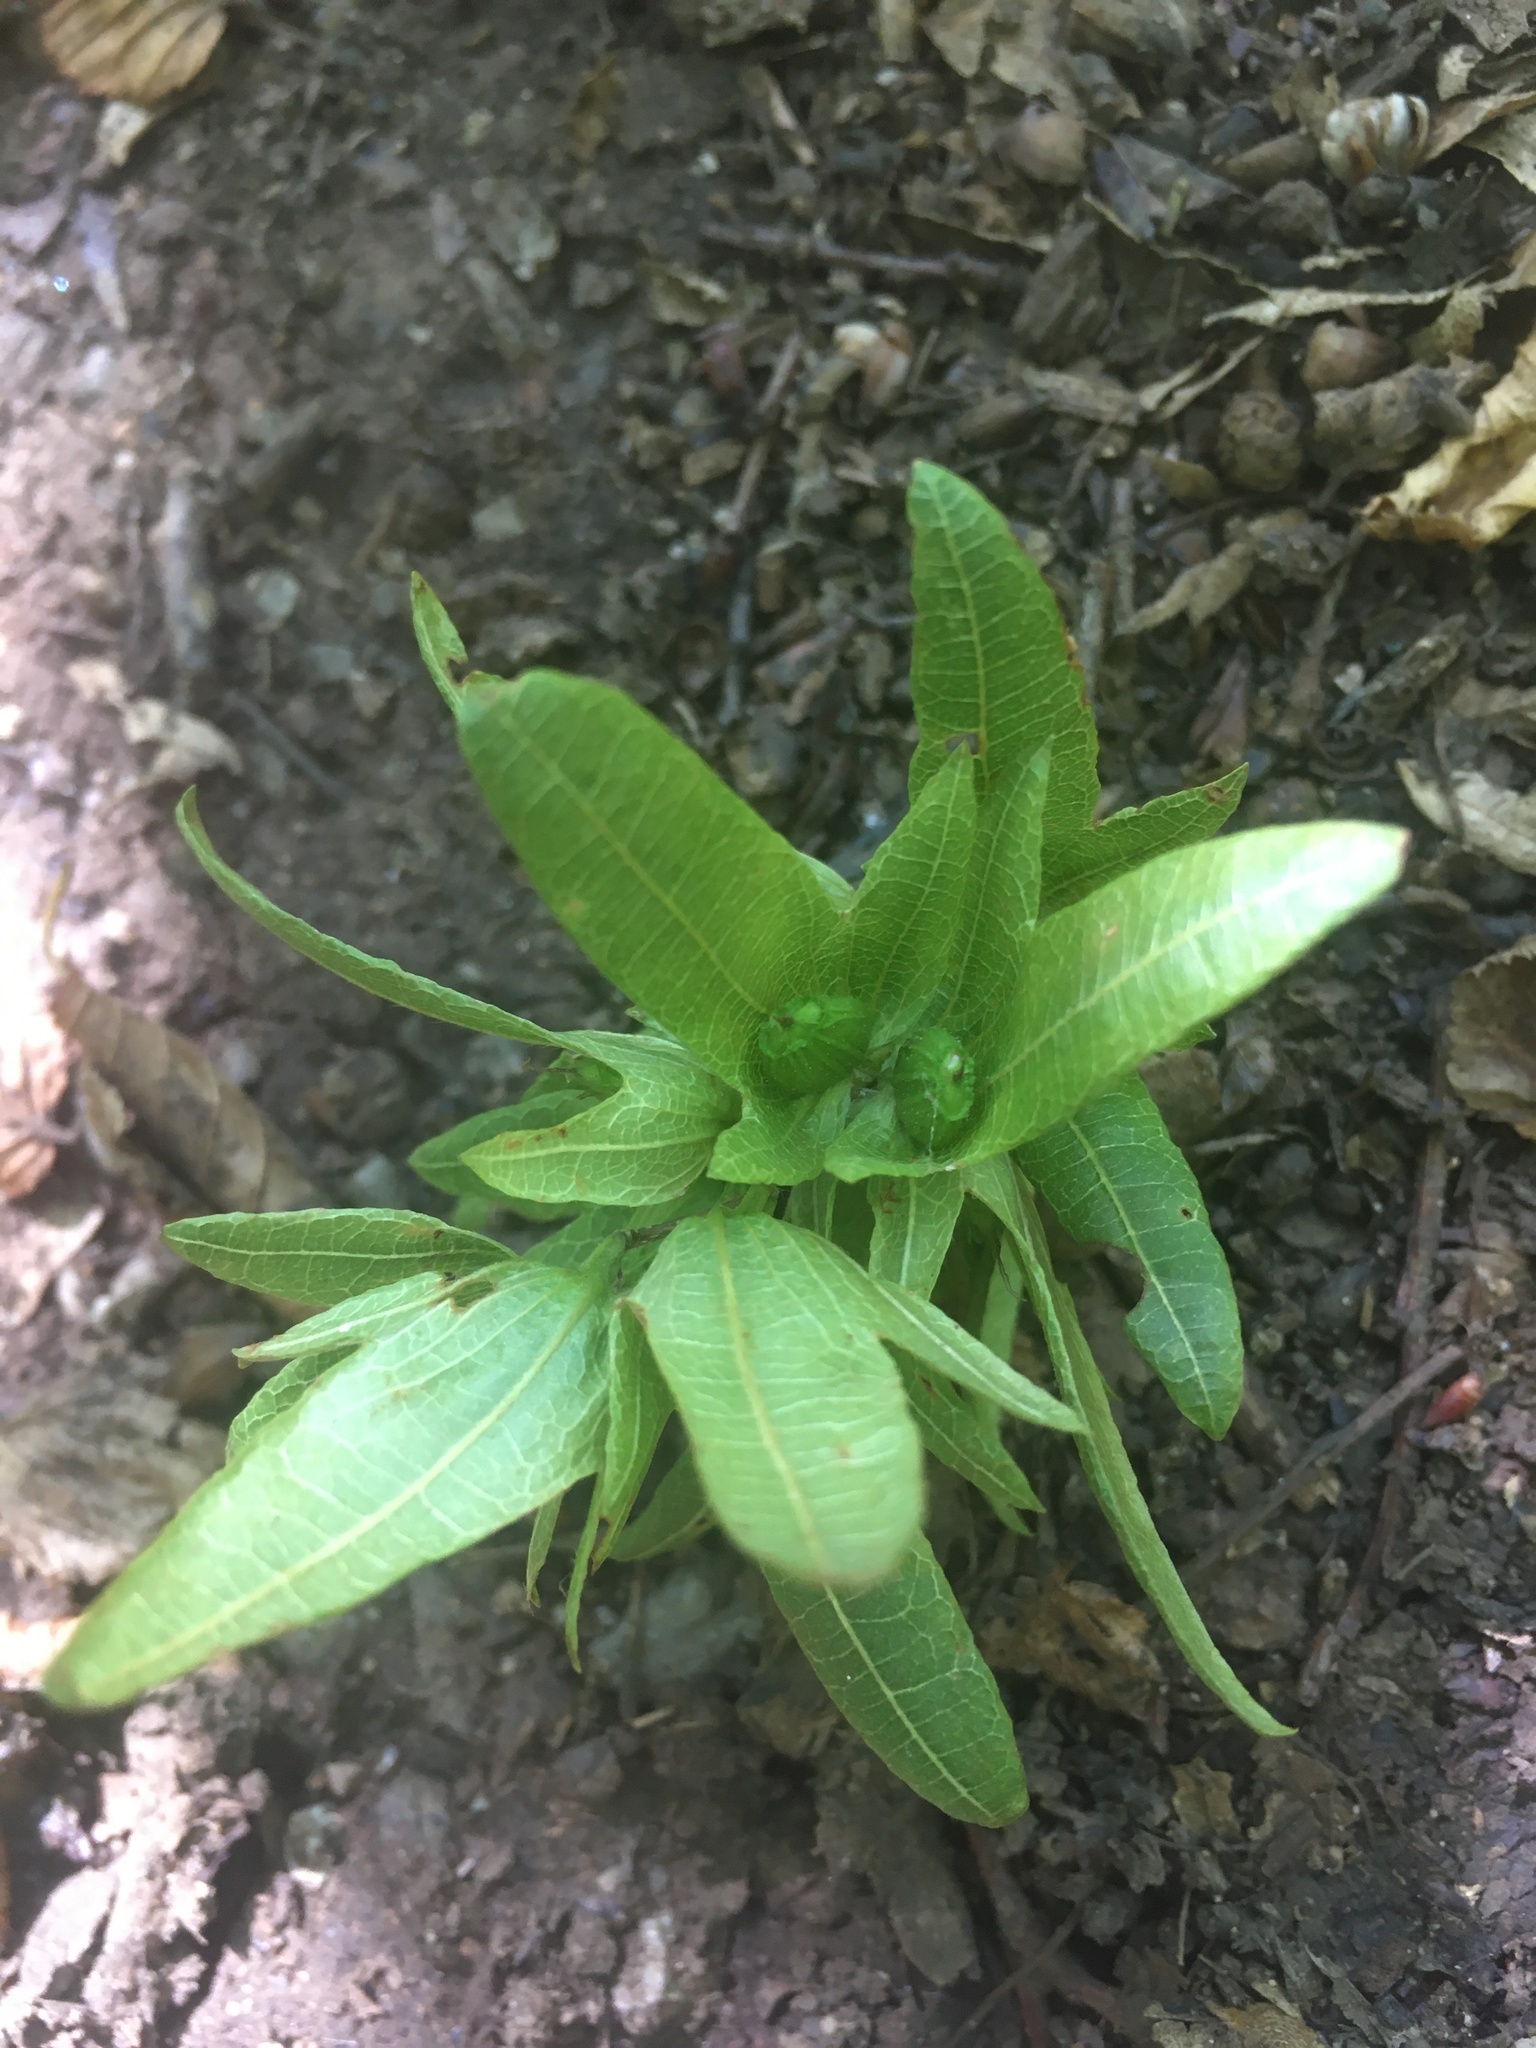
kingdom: Plantae
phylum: Tracheophyta
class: Magnoliopsida
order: Fagales
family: Betulaceae
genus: Carpinus
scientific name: Carpinus betulus
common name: Hornbeam
